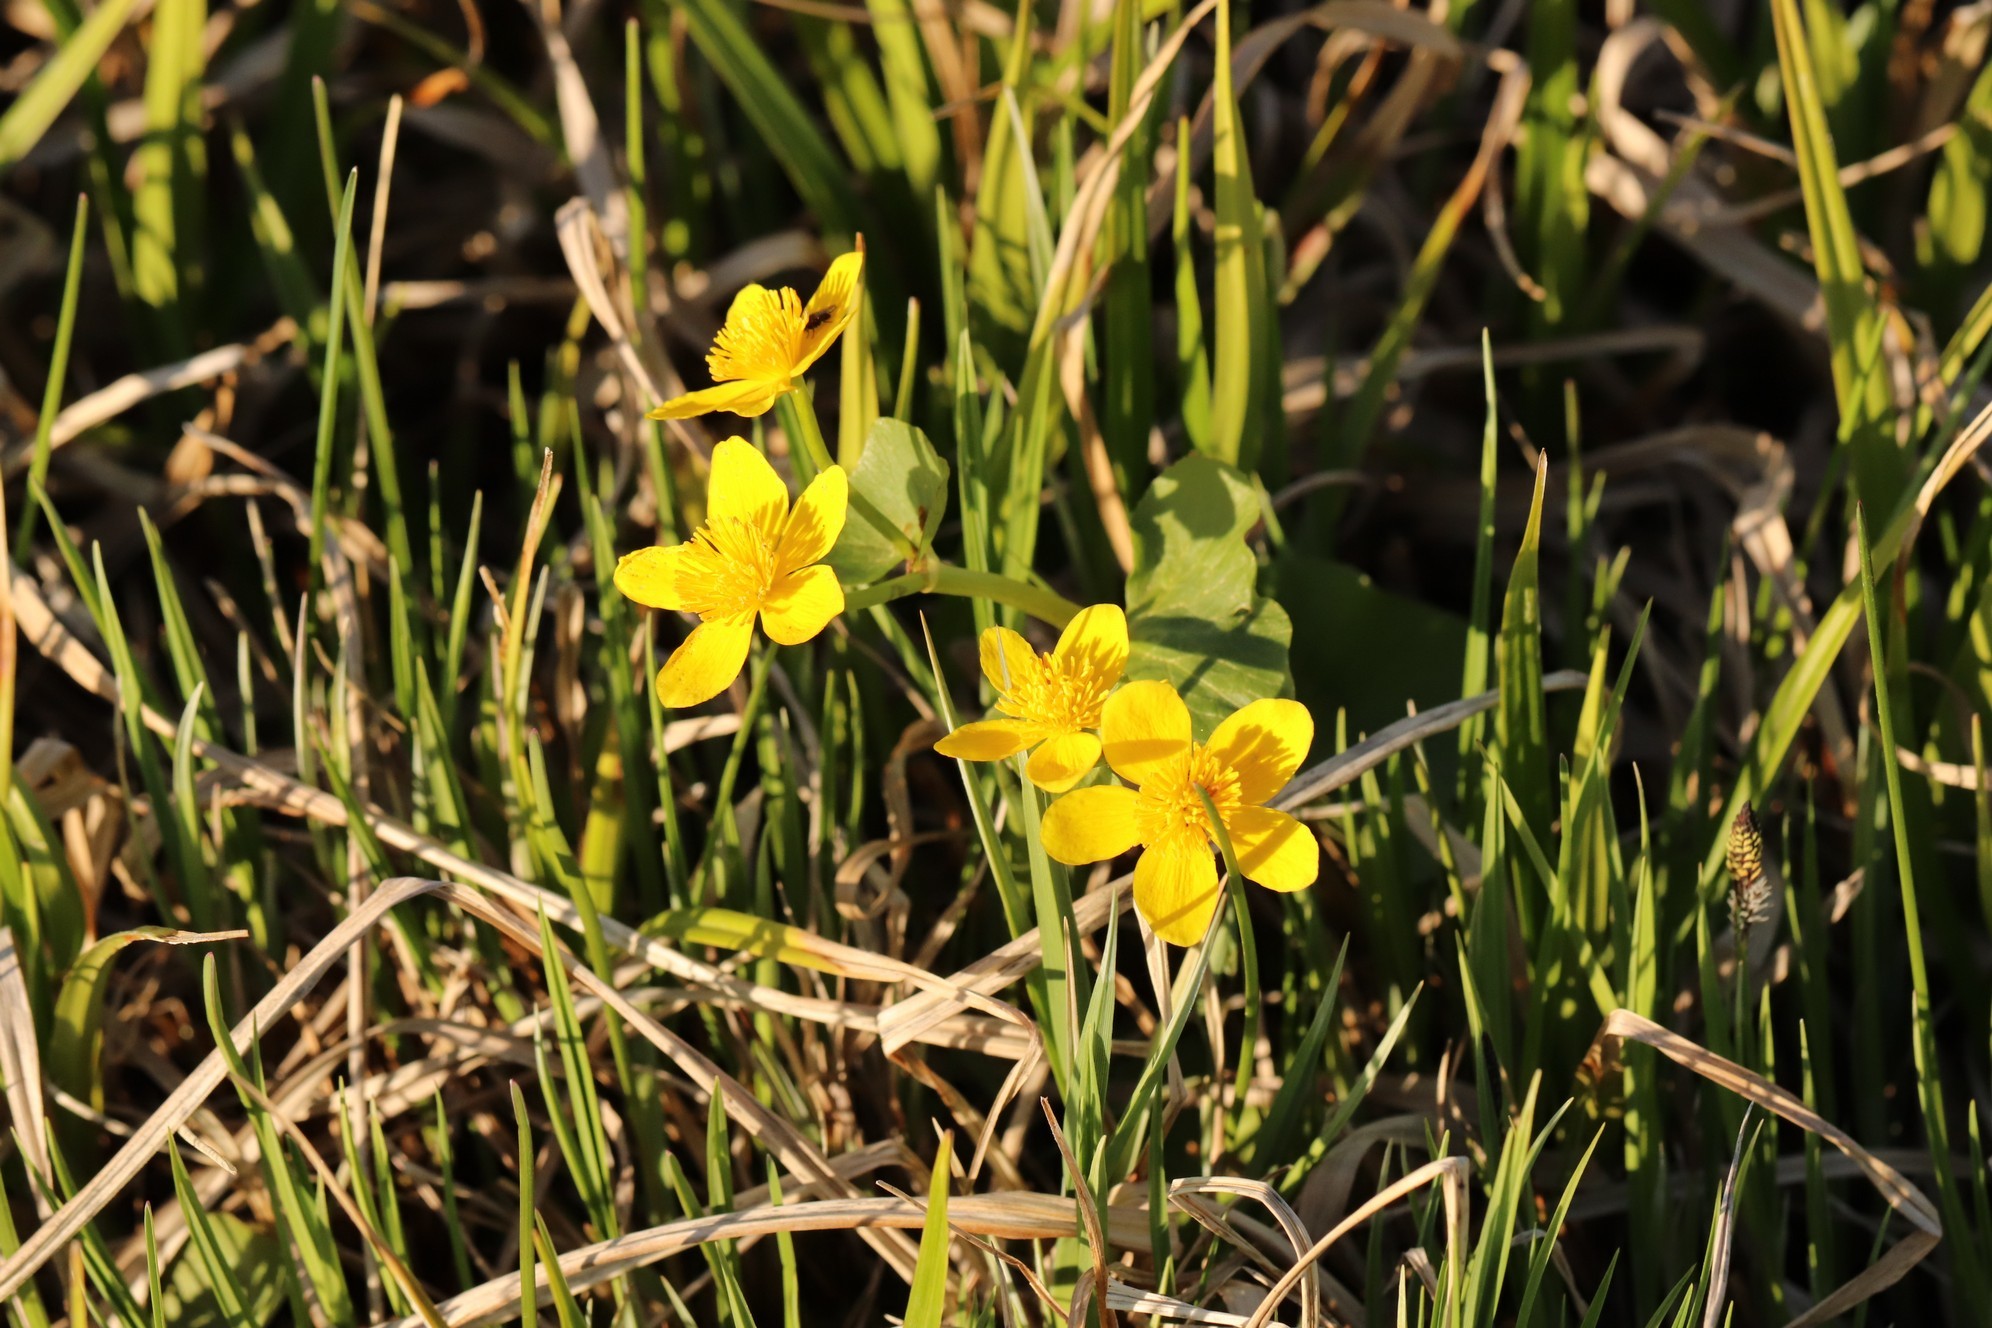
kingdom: Plantae
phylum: Tracheophyta
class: Magnoliopsida
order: Ranunculales
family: Ranunculaceae
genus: Caltha
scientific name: Caltha palustris
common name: Marsh marigold
